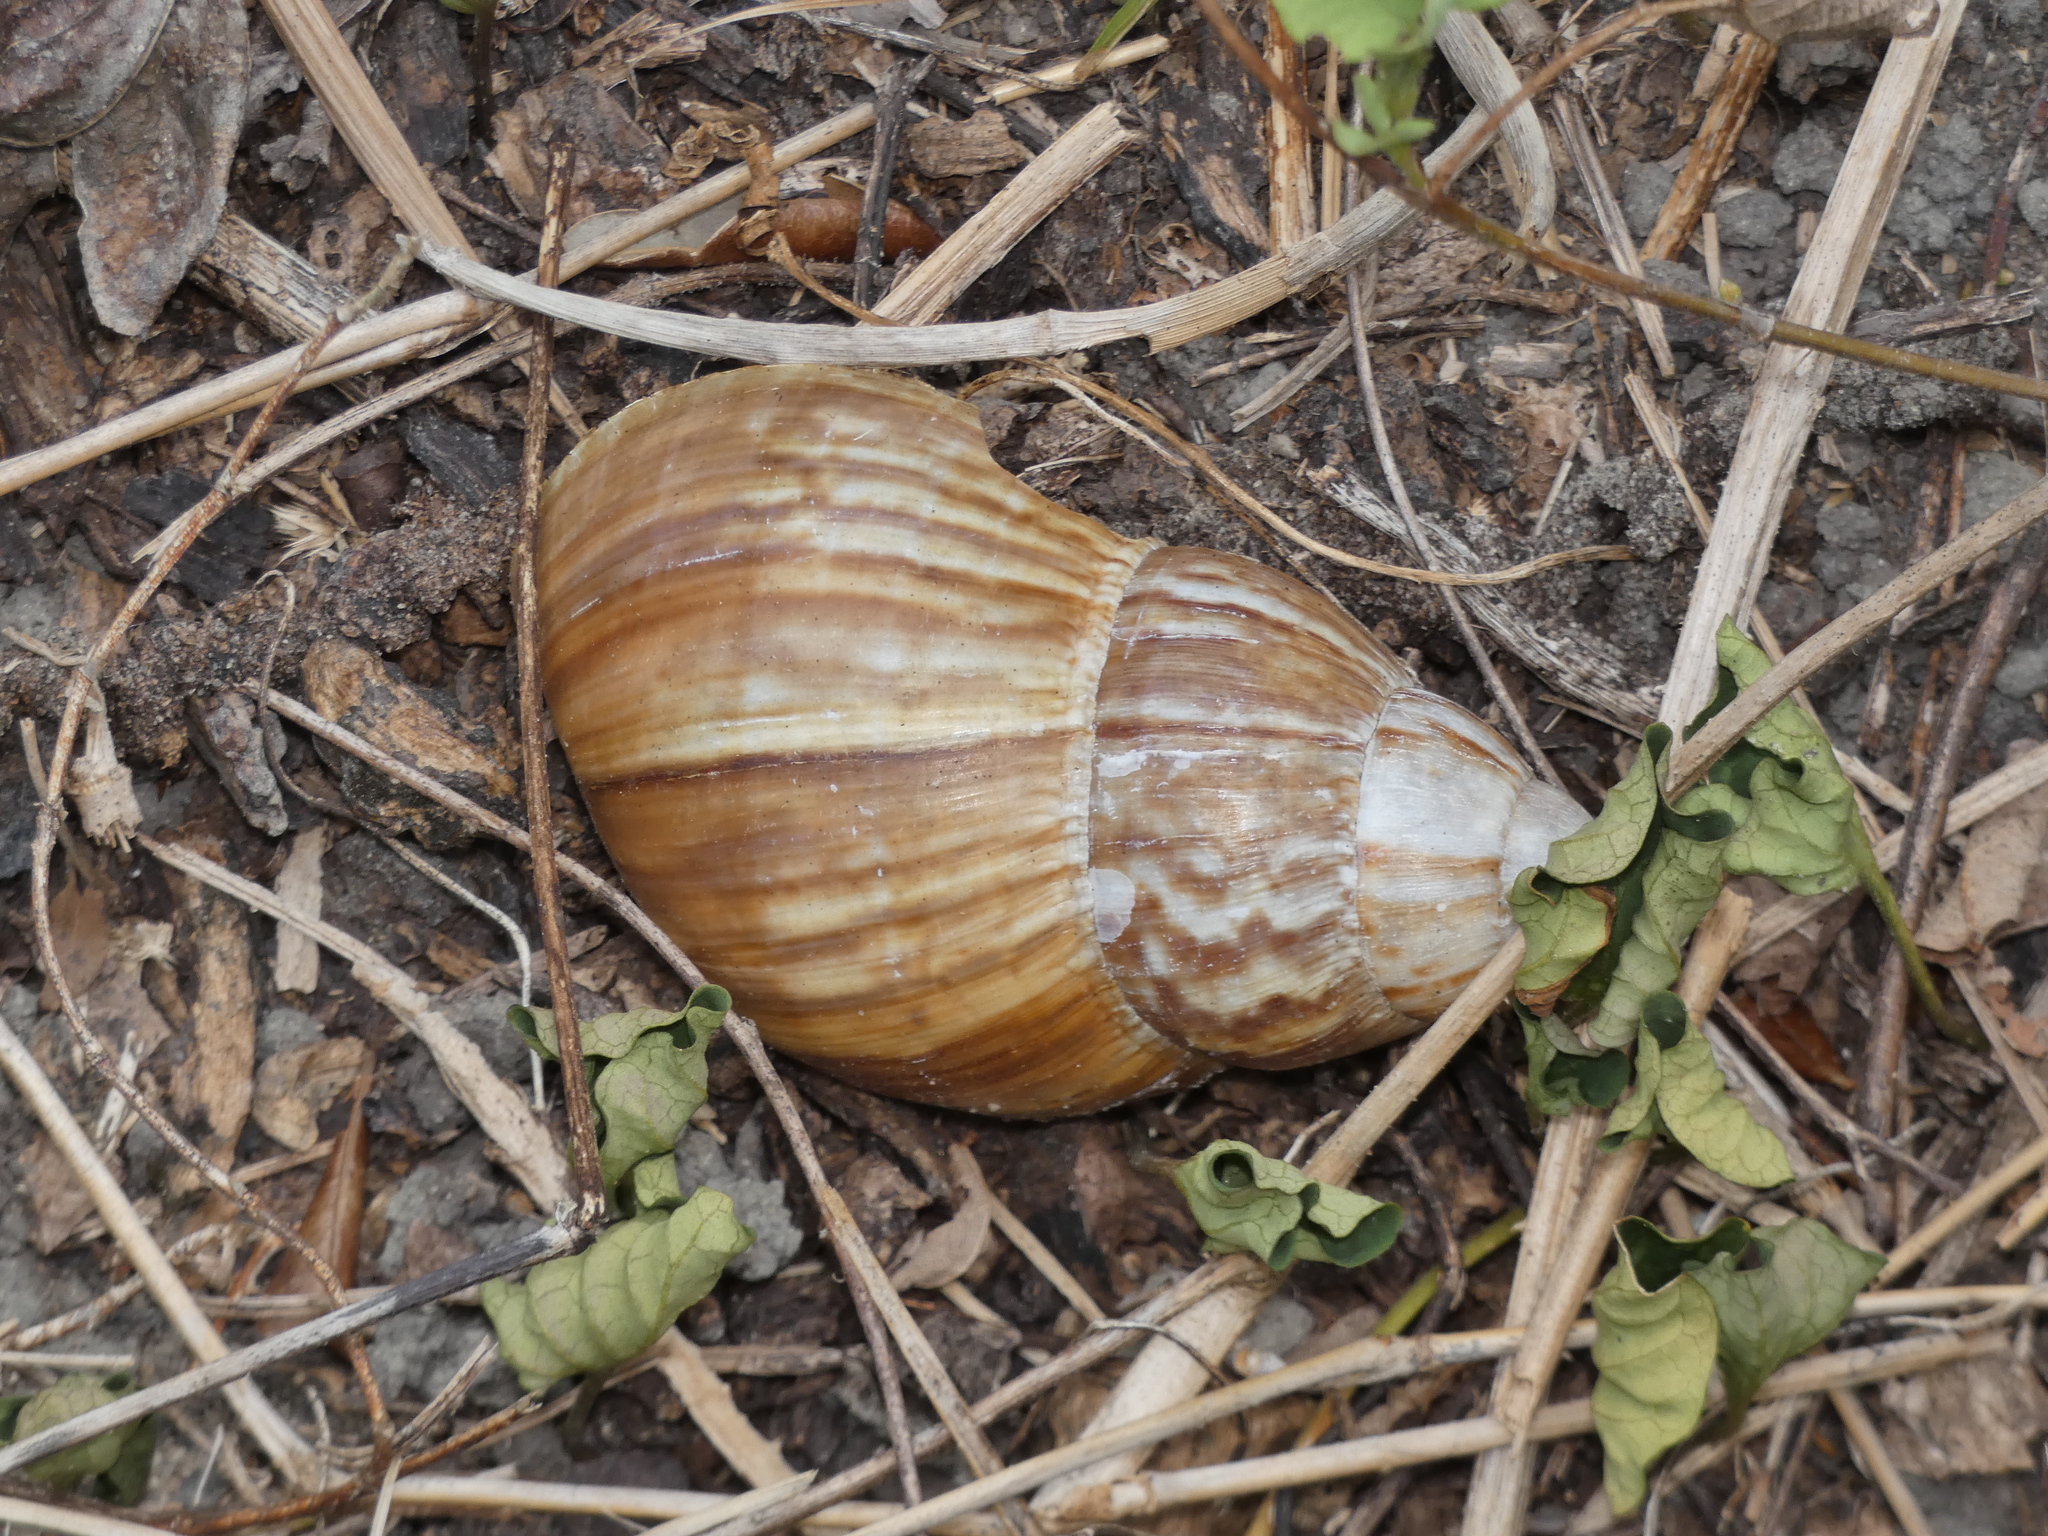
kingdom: Animalia
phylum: Mollusca
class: Gastropoda
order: Stylommatophora
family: Achatinidae
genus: Lissachatina
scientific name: Lissachatina fulica
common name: Giant african snail
